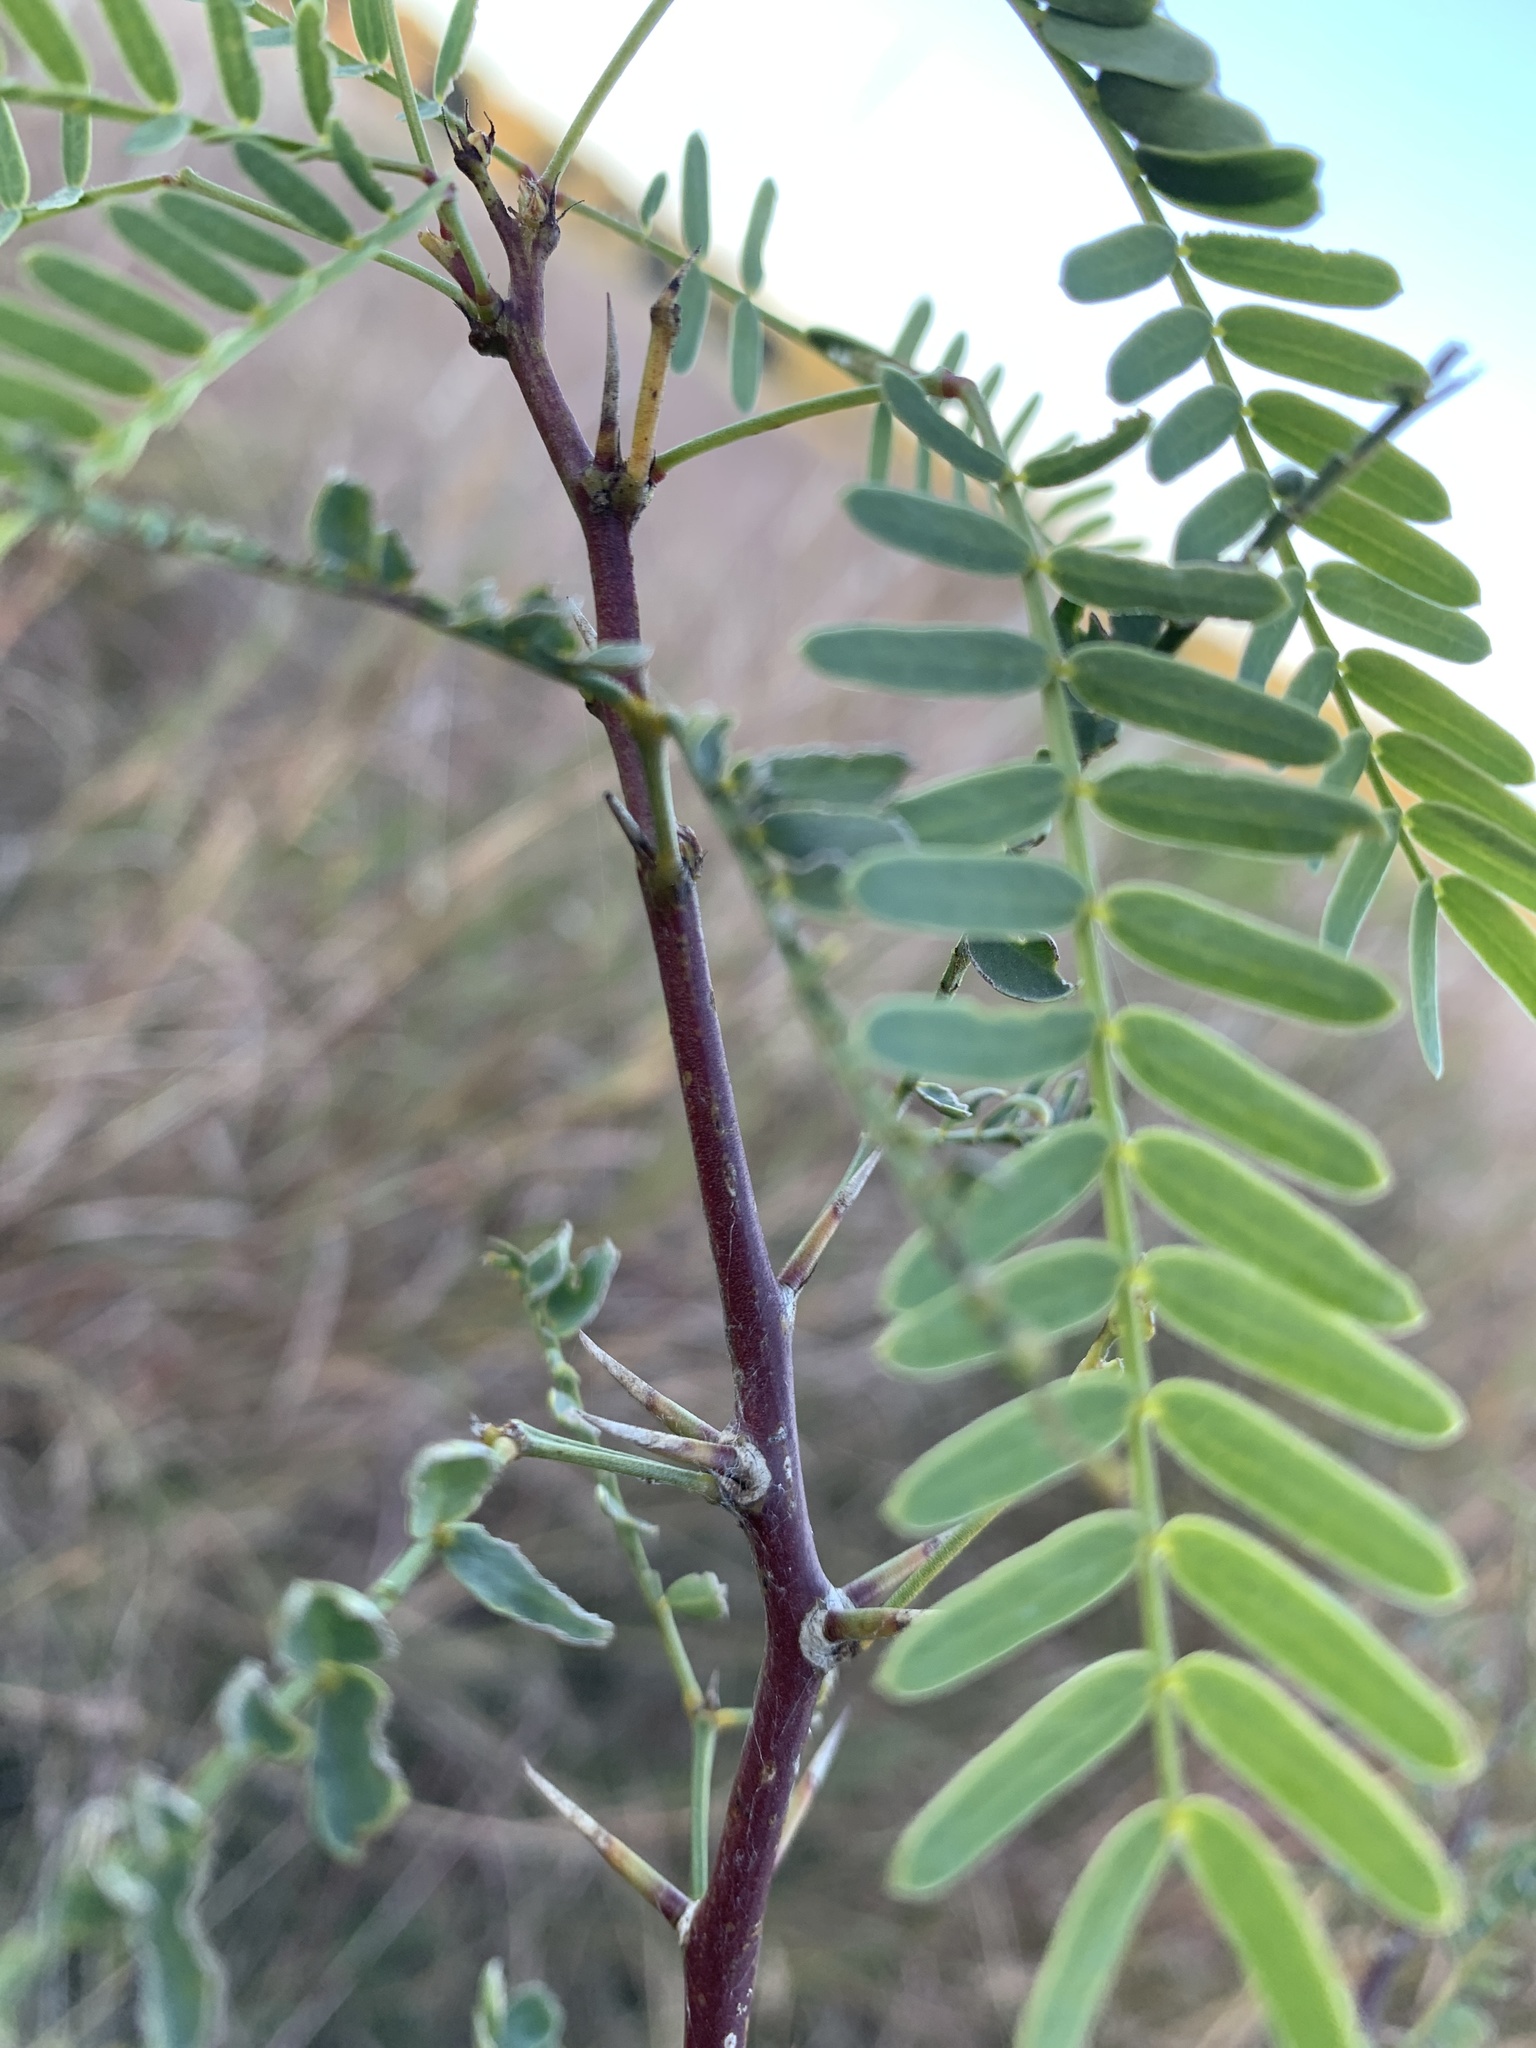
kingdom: Plantae
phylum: Tracheophyta
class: Magnoliopsida
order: Fabales
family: Fabaceae
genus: Prosopis
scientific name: Prosopis glandulosa
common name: Honey mesquite
